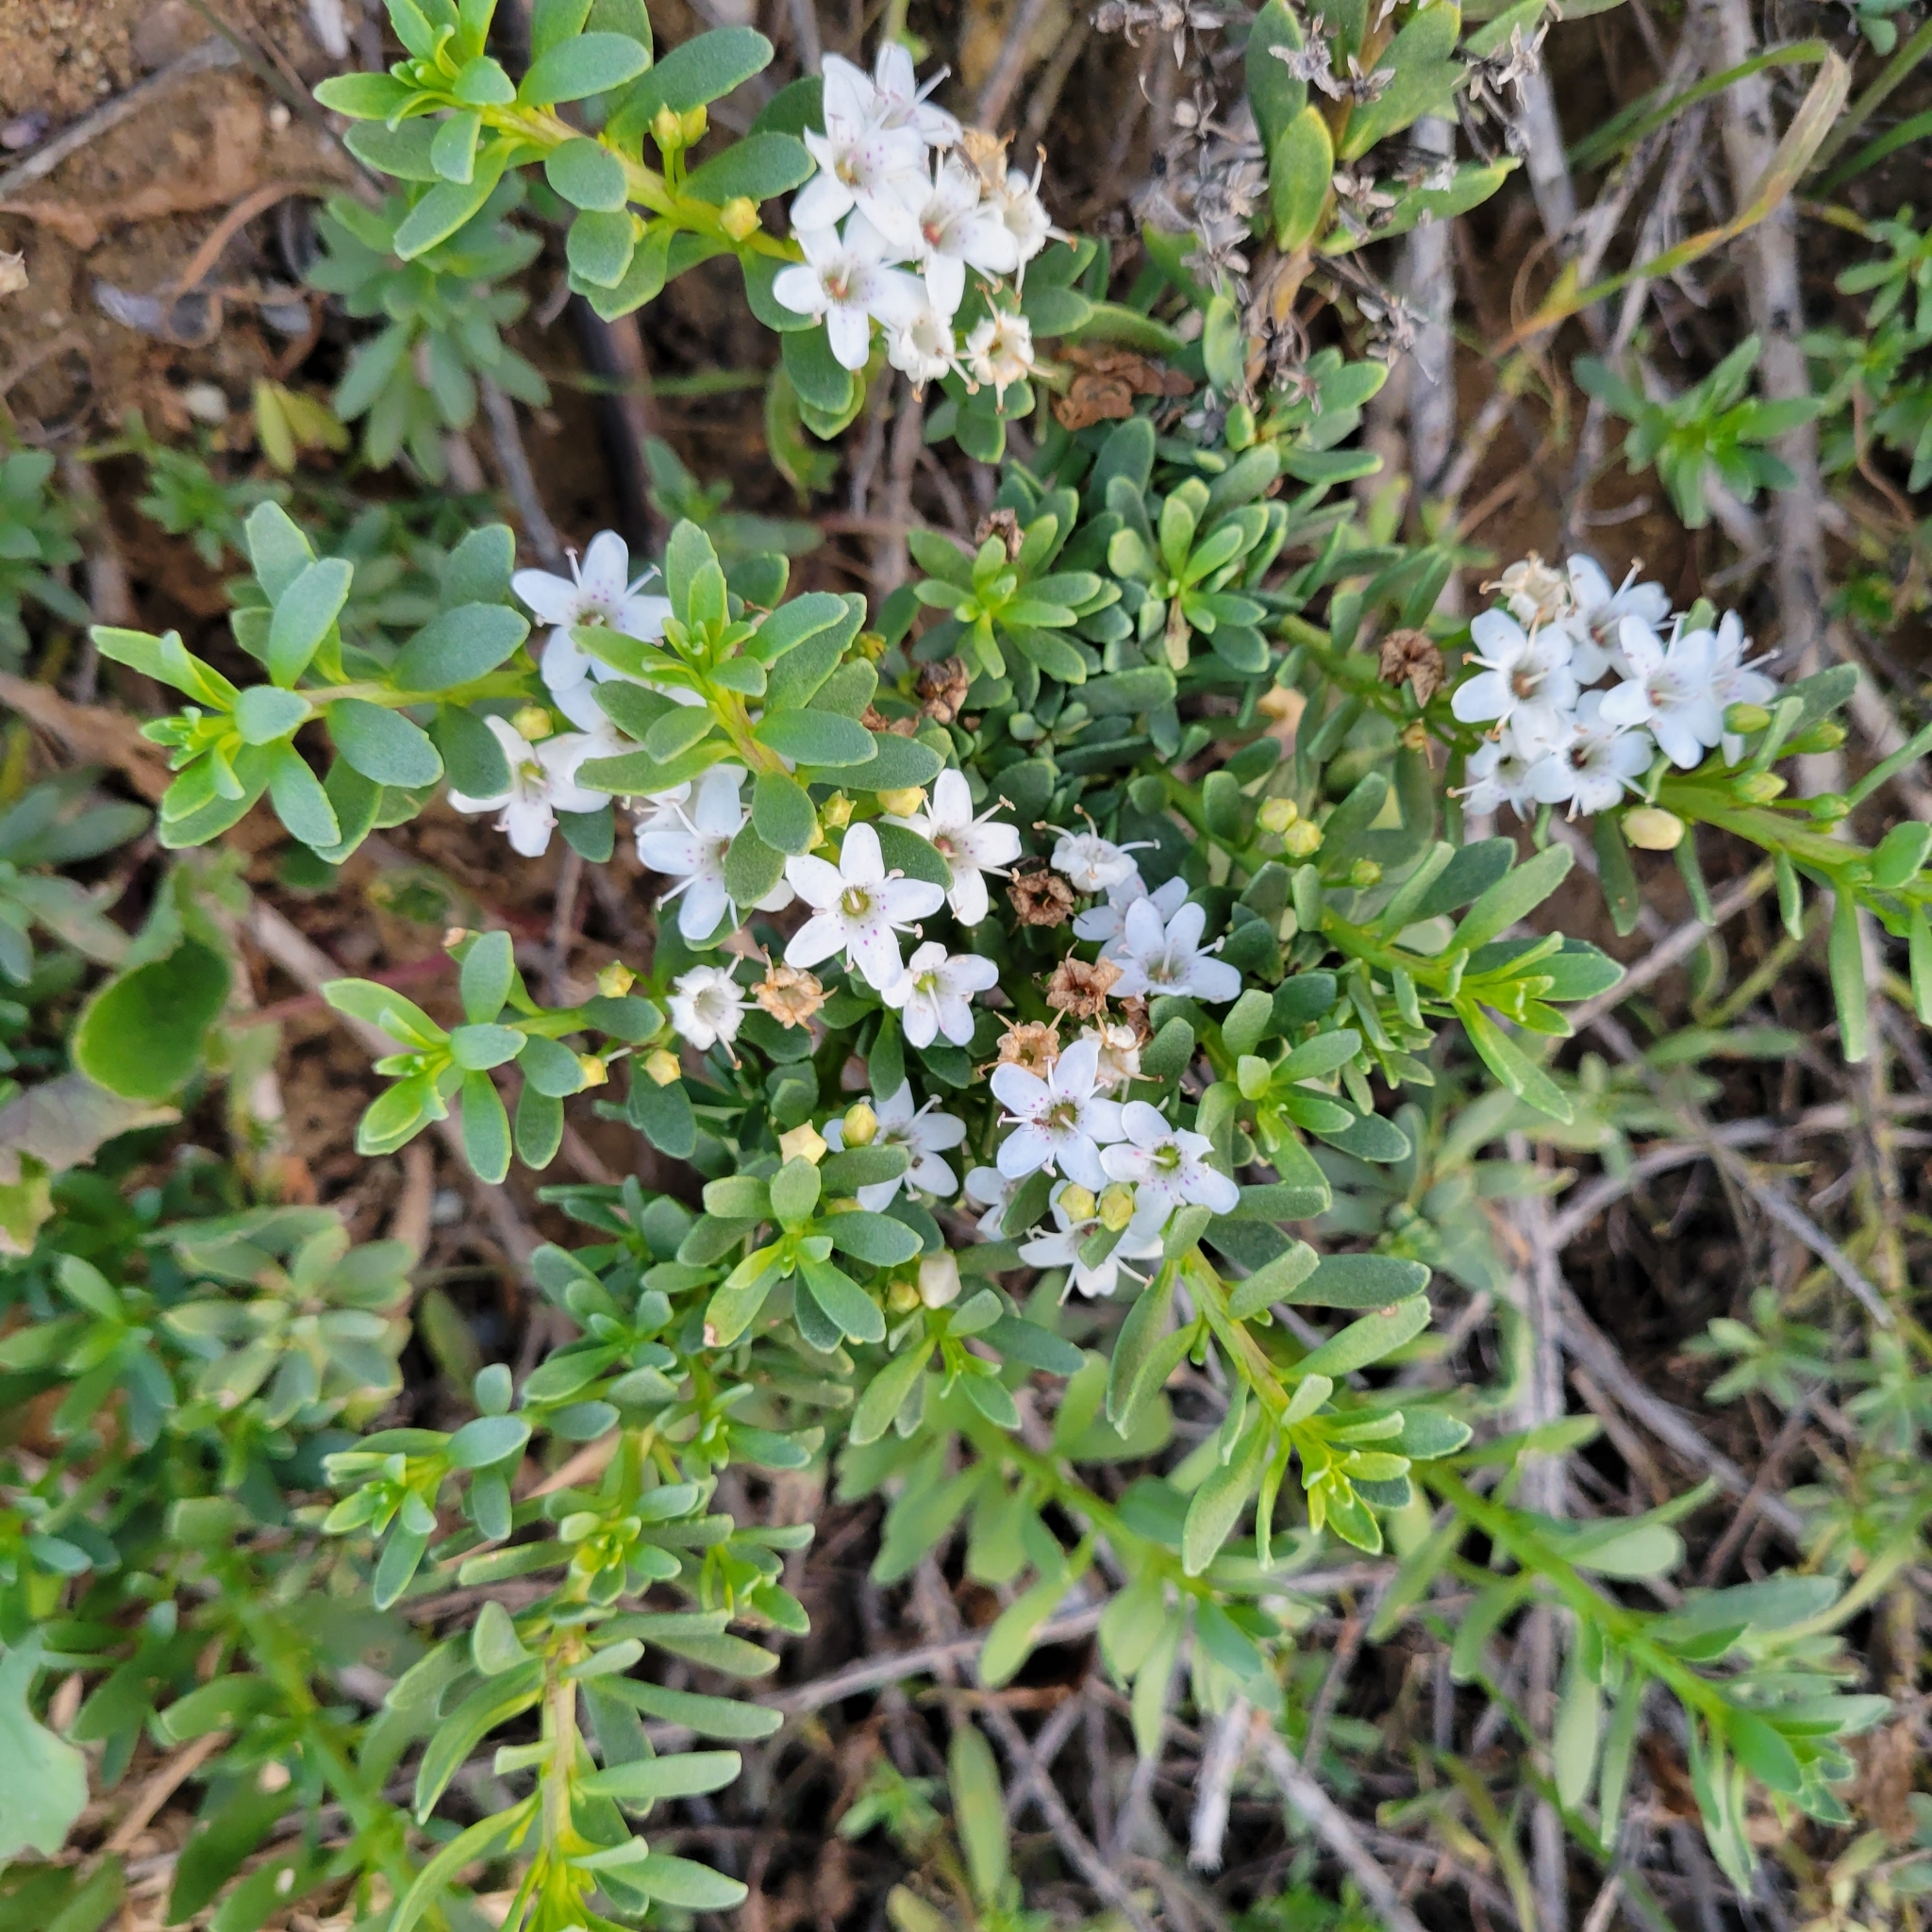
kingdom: Plantae
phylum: Tracheophyta
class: Magnoliopsida
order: Lamiales
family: Scrophulariaceae
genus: Myoporum
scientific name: Myoporum parvifolium
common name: Dwarf native-myrtle
